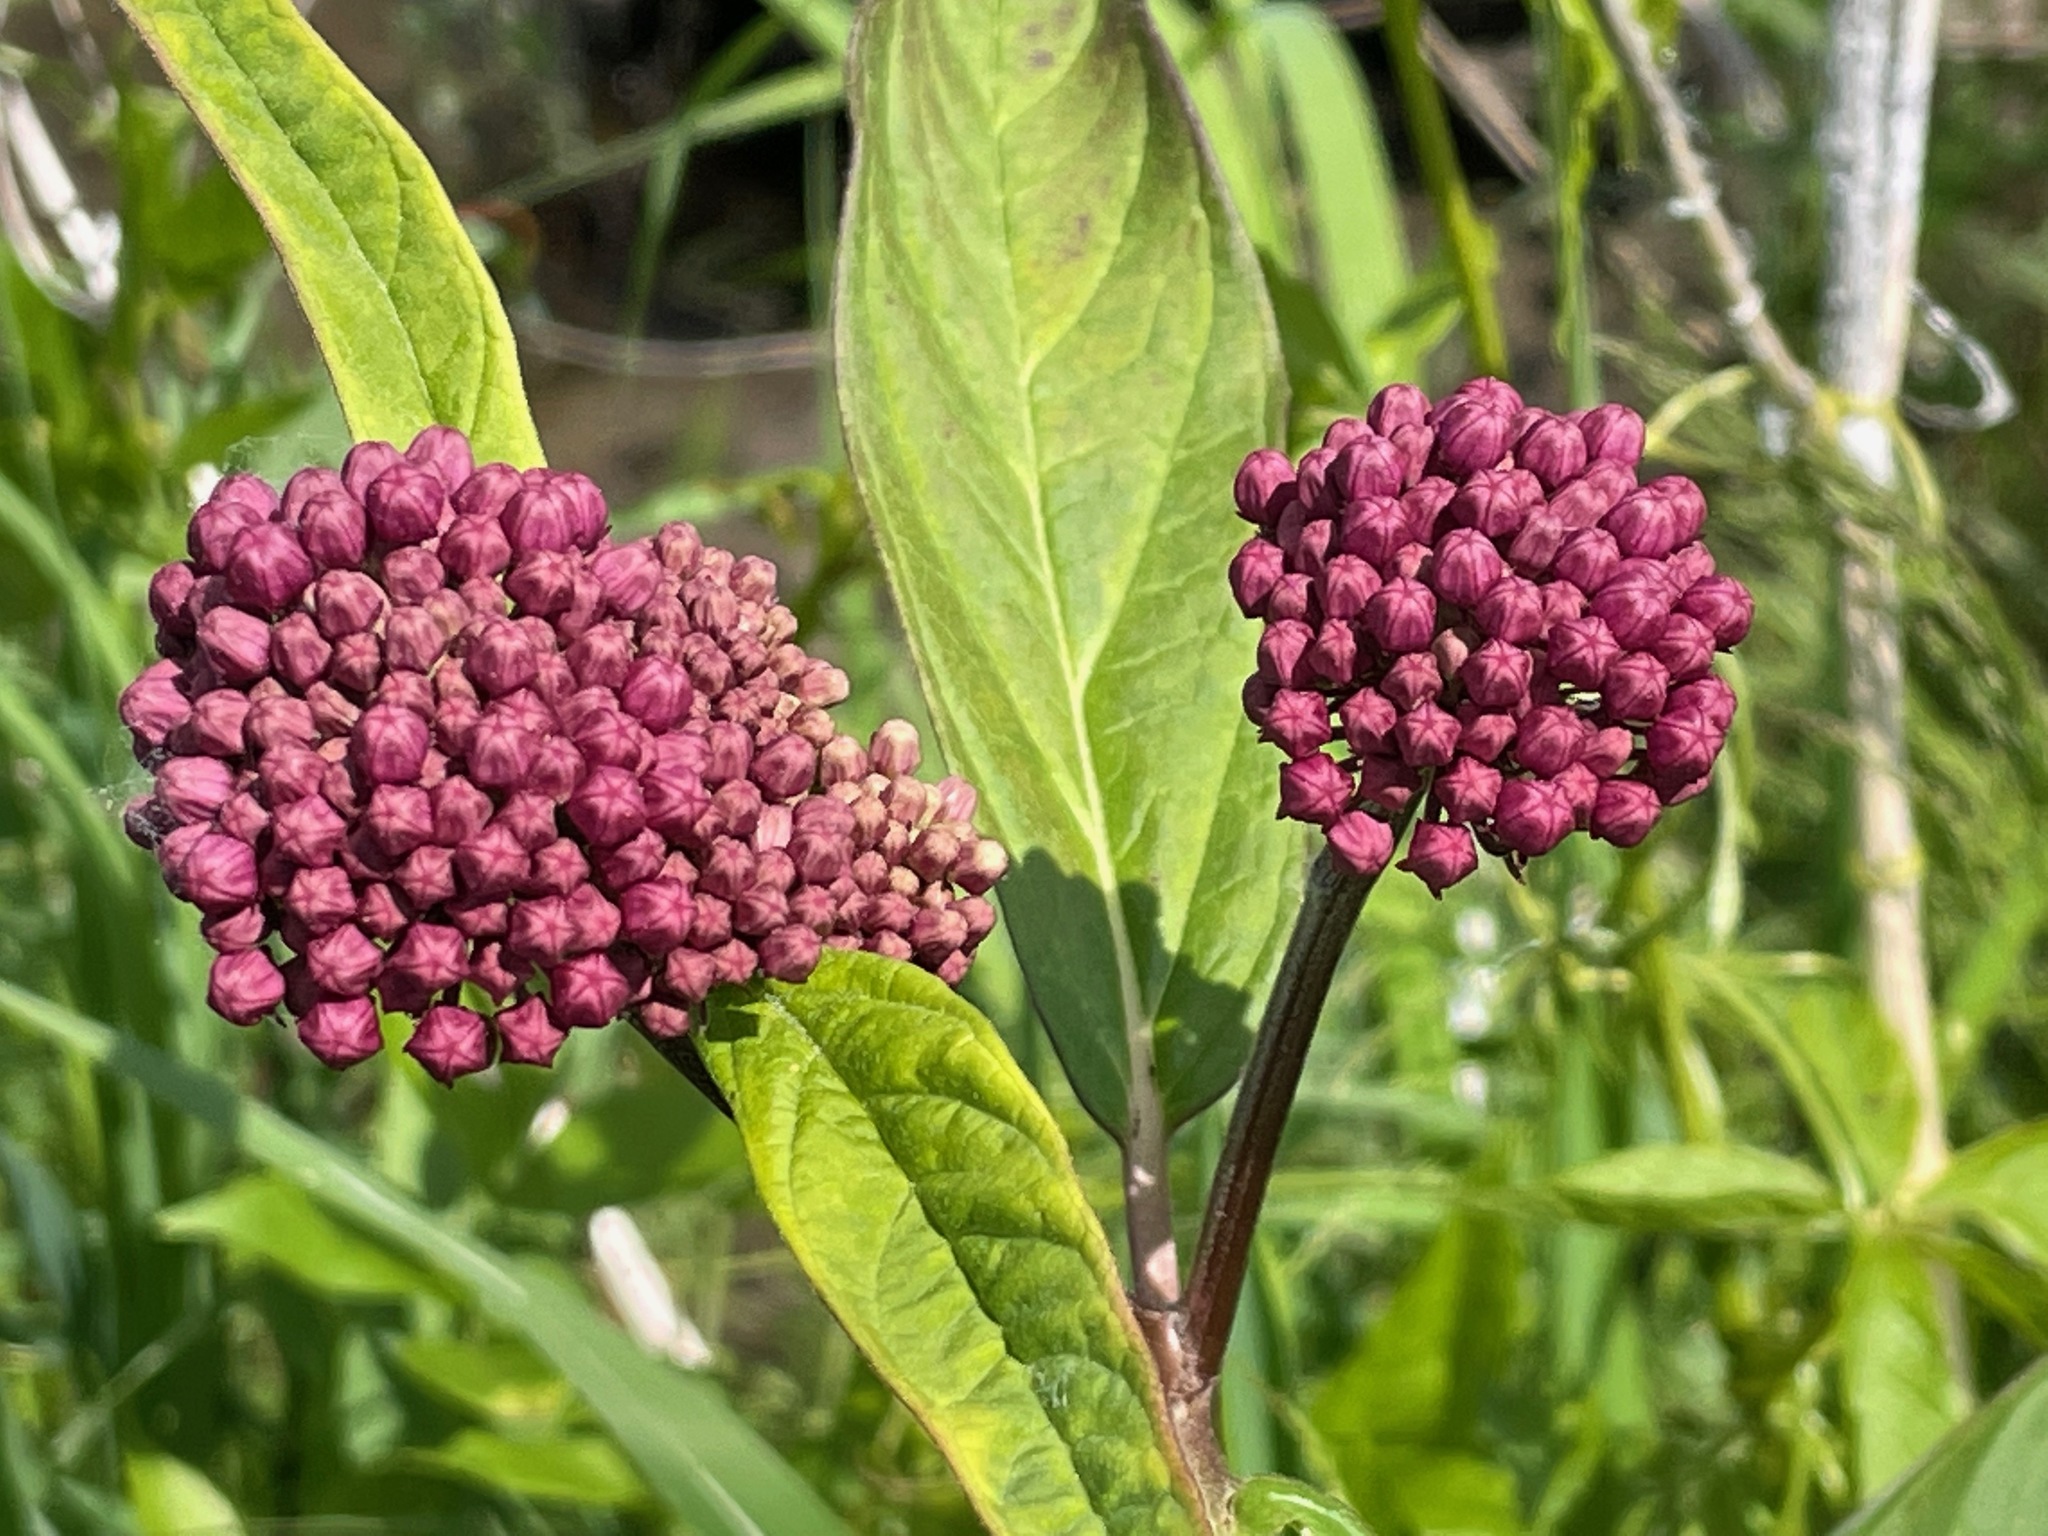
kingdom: Plantae
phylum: Tracheophyta
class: Magnoliopsida
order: Gentianales
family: Apocynaceae
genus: Asclepias
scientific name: Asclepias incarnata
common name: Swamp milkweed
